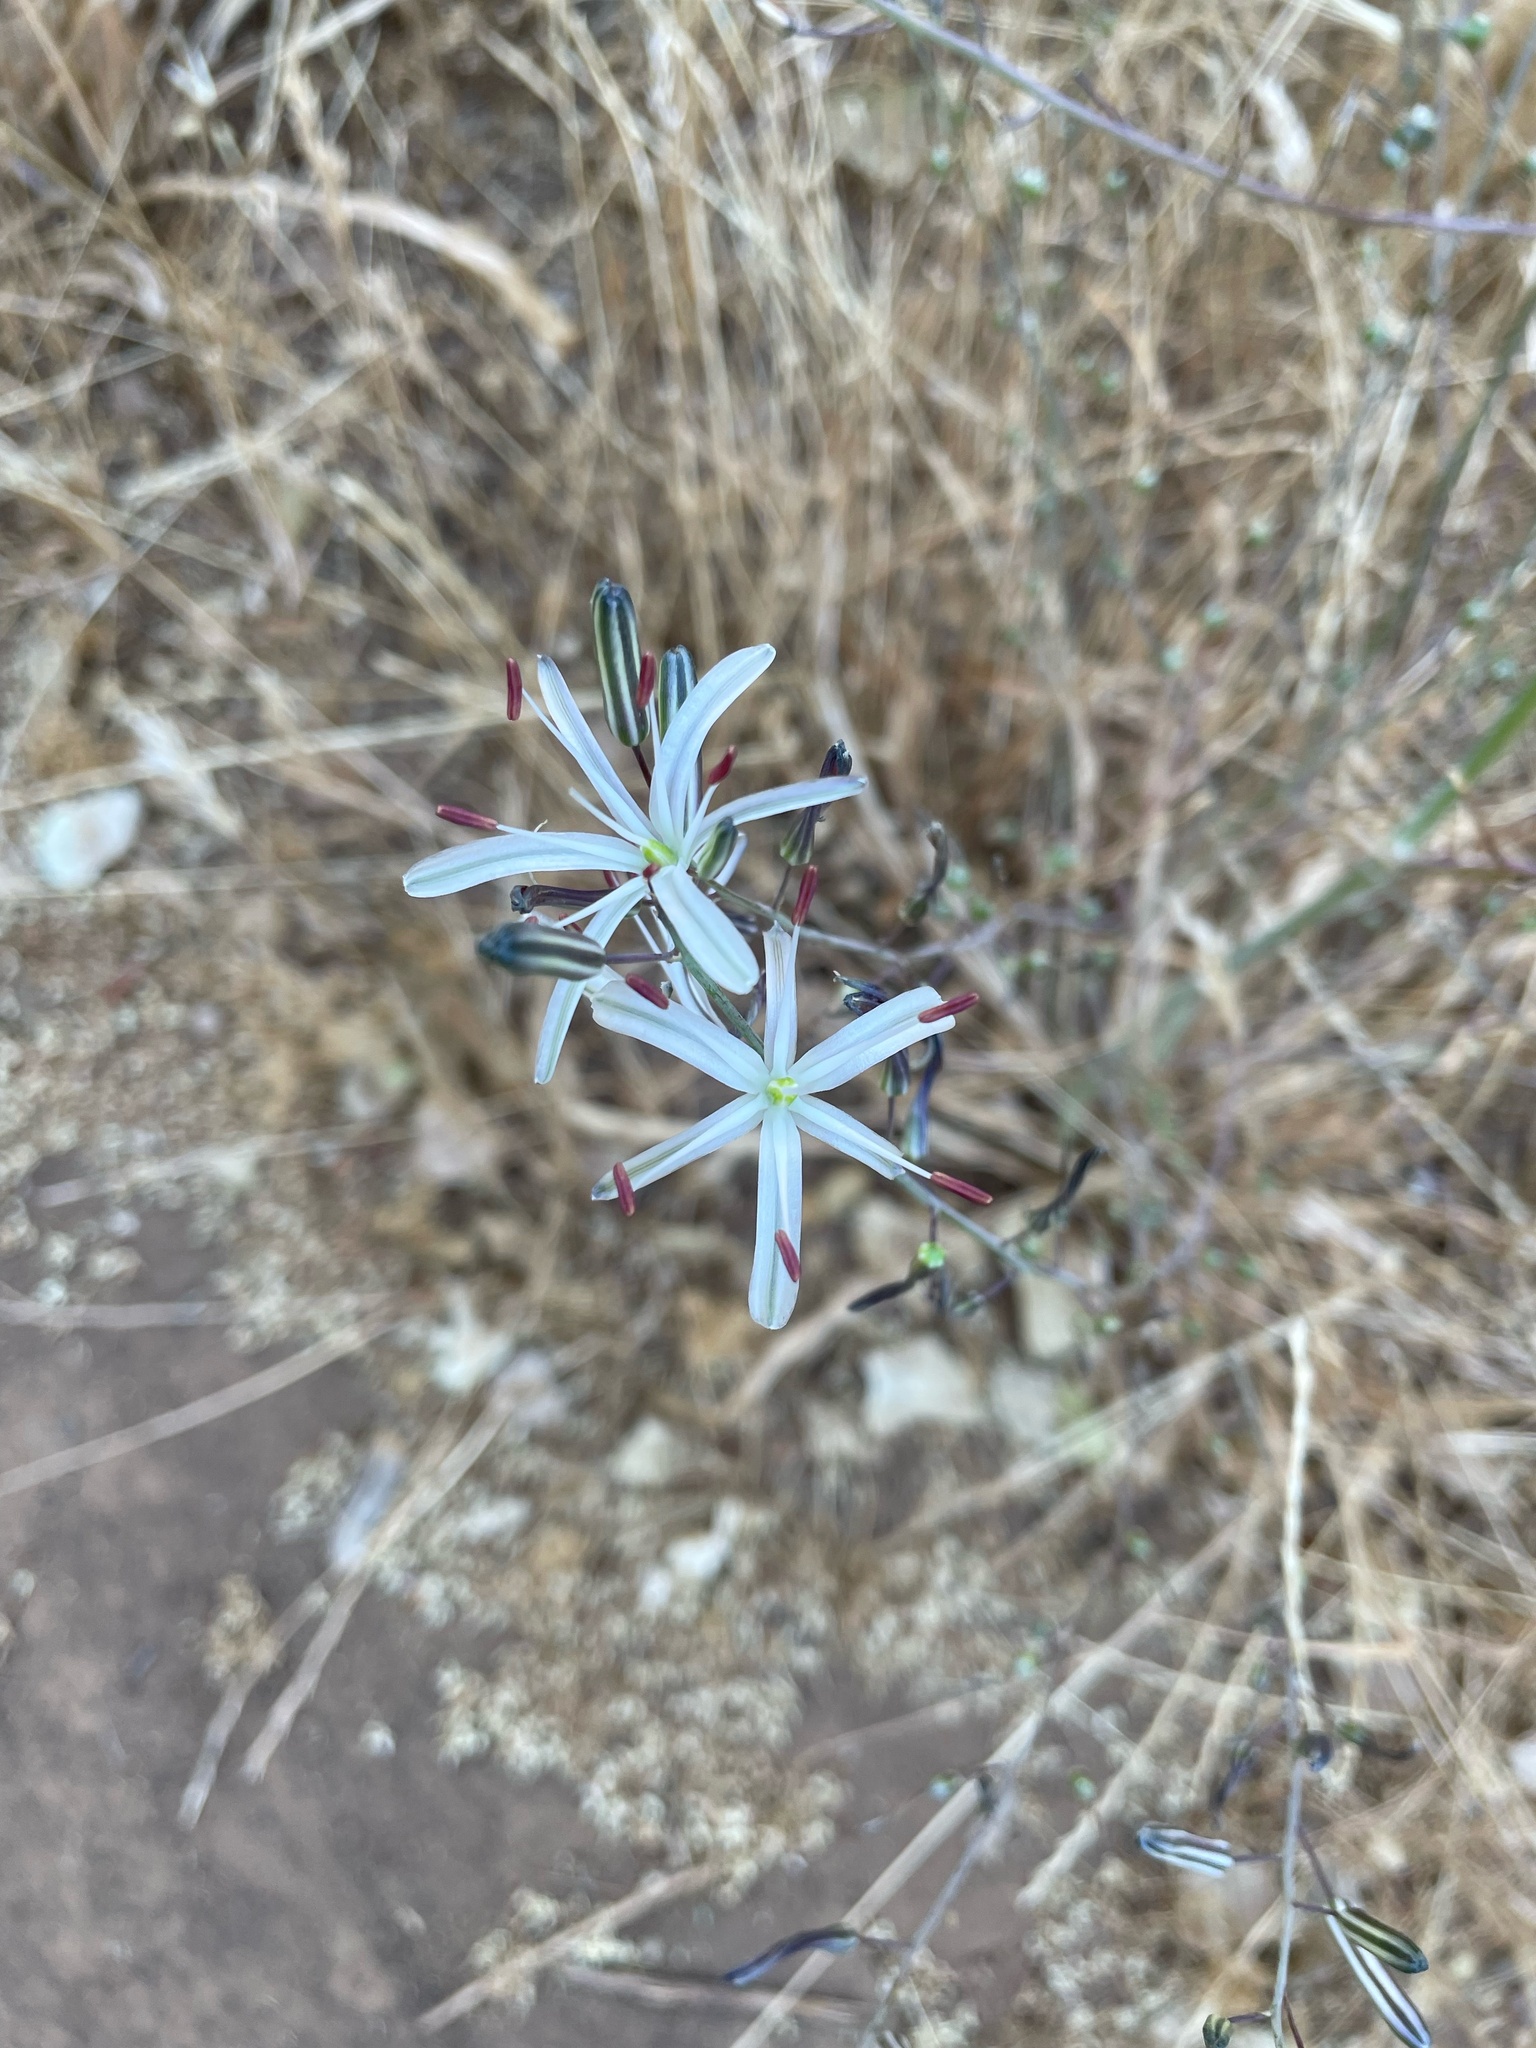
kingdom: Plantae
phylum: Tracheophyta
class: Liliopsida
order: Asparagales
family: Asparagaceae
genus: Chlorogalum
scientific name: Chlorogalum pomeridianum
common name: Amole
